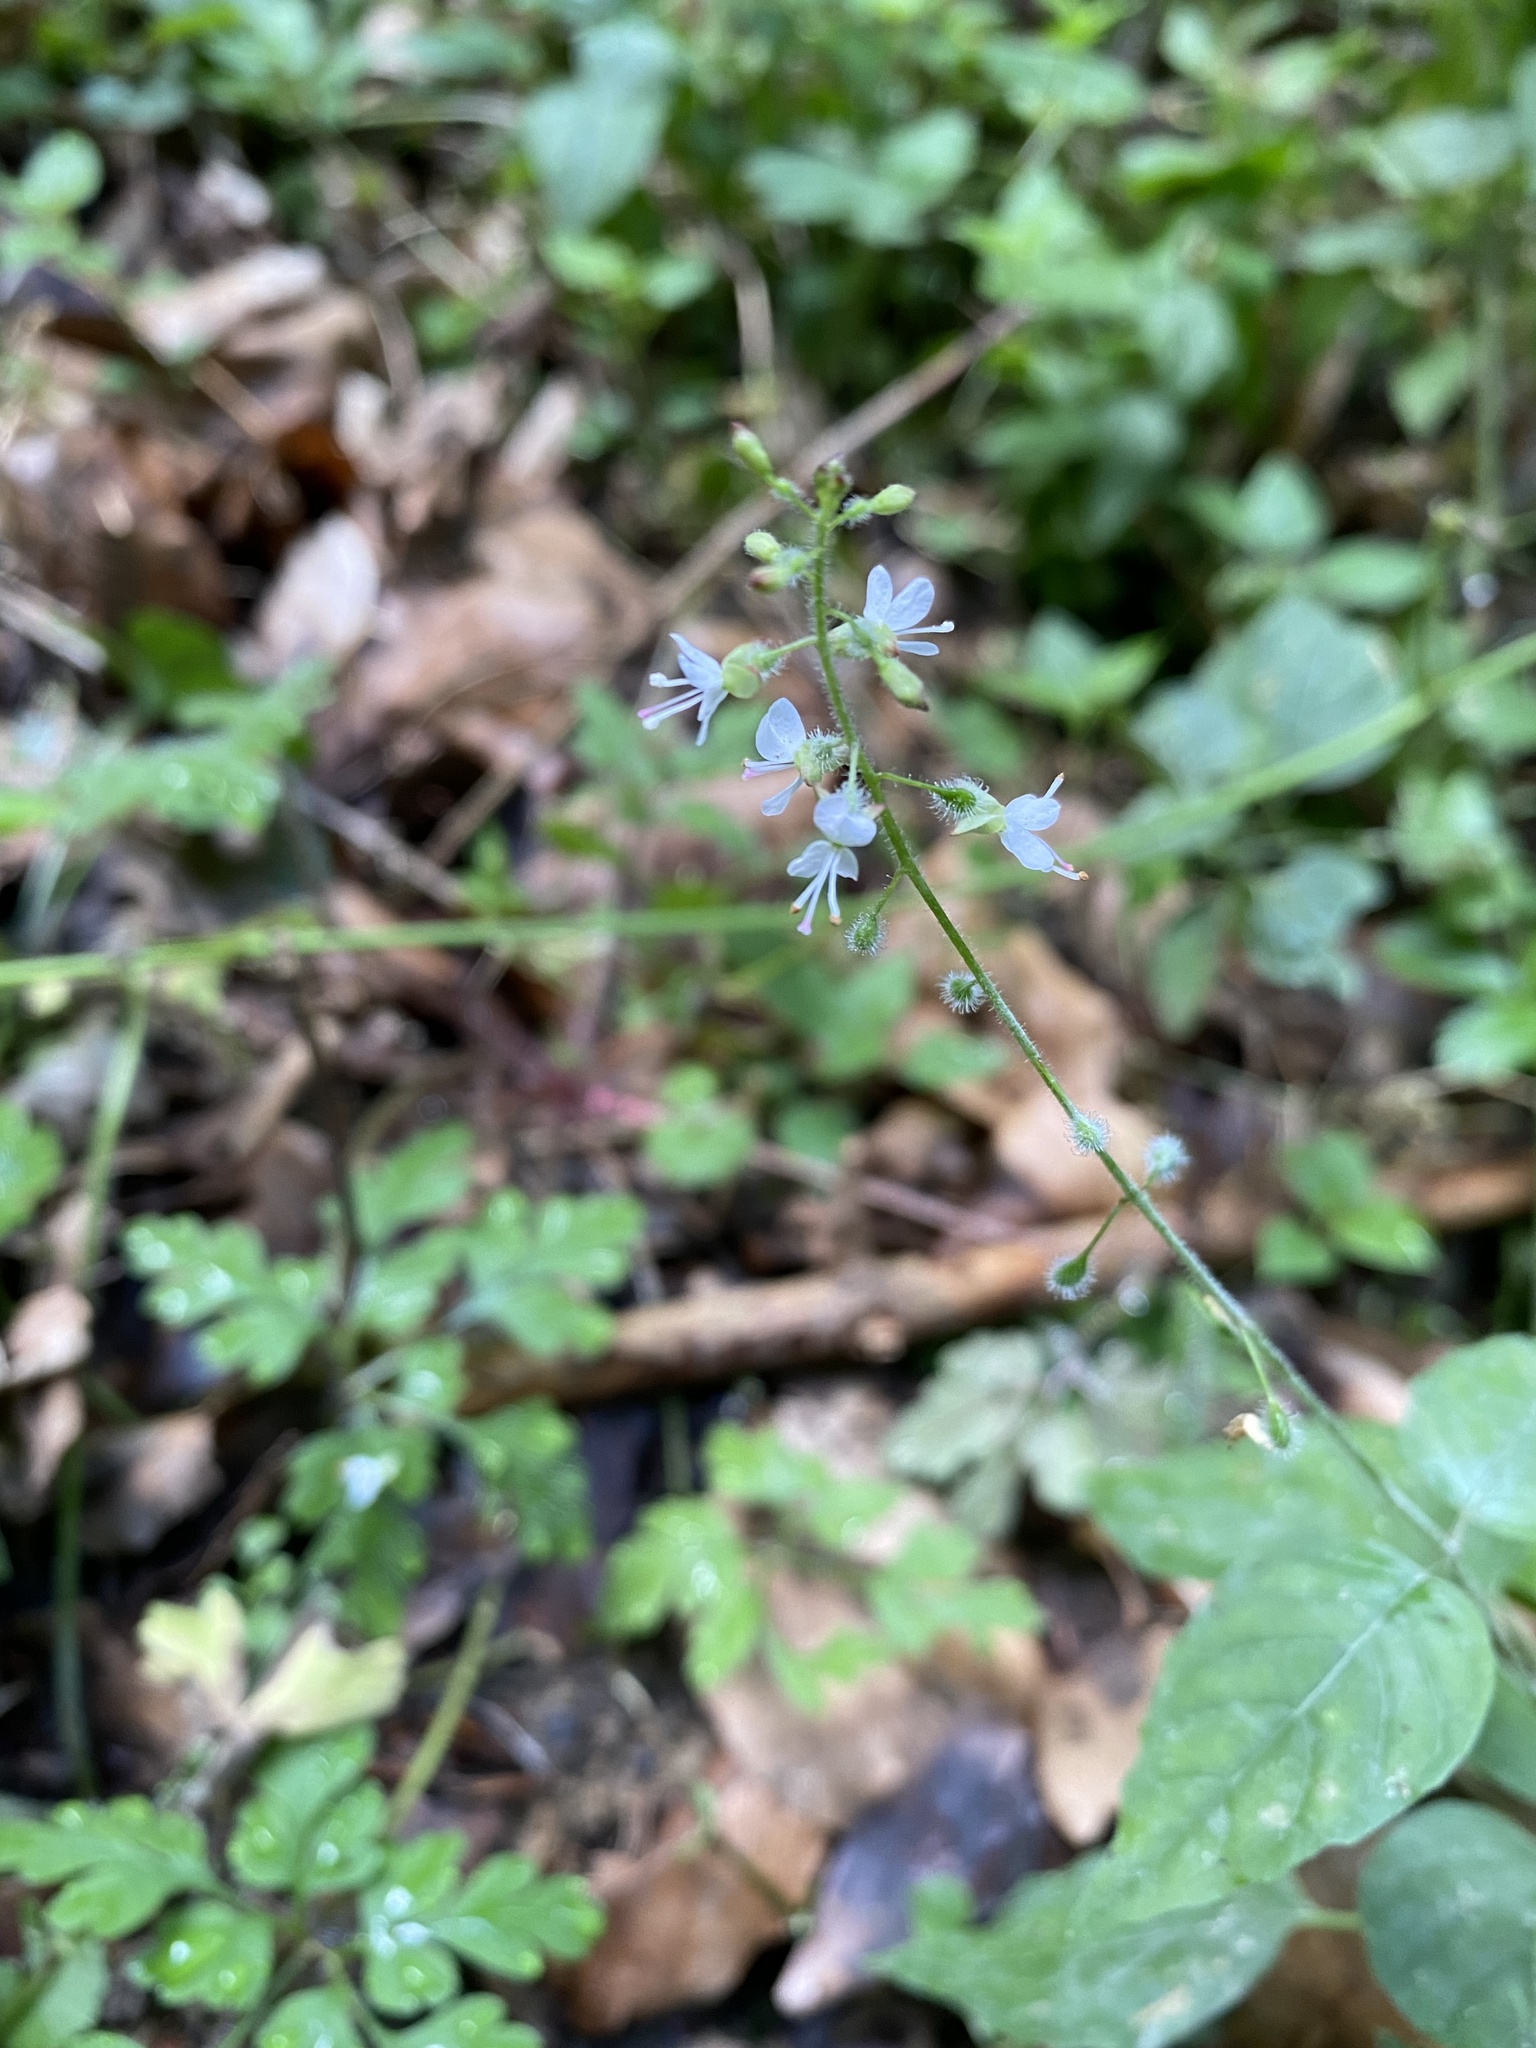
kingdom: Plantae
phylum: Tracheophyta
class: Magnoliopsida
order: Myrtales
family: Onagraceae
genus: Circaea
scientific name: Circaea lutetiana
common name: Enchanter's-nightshade
